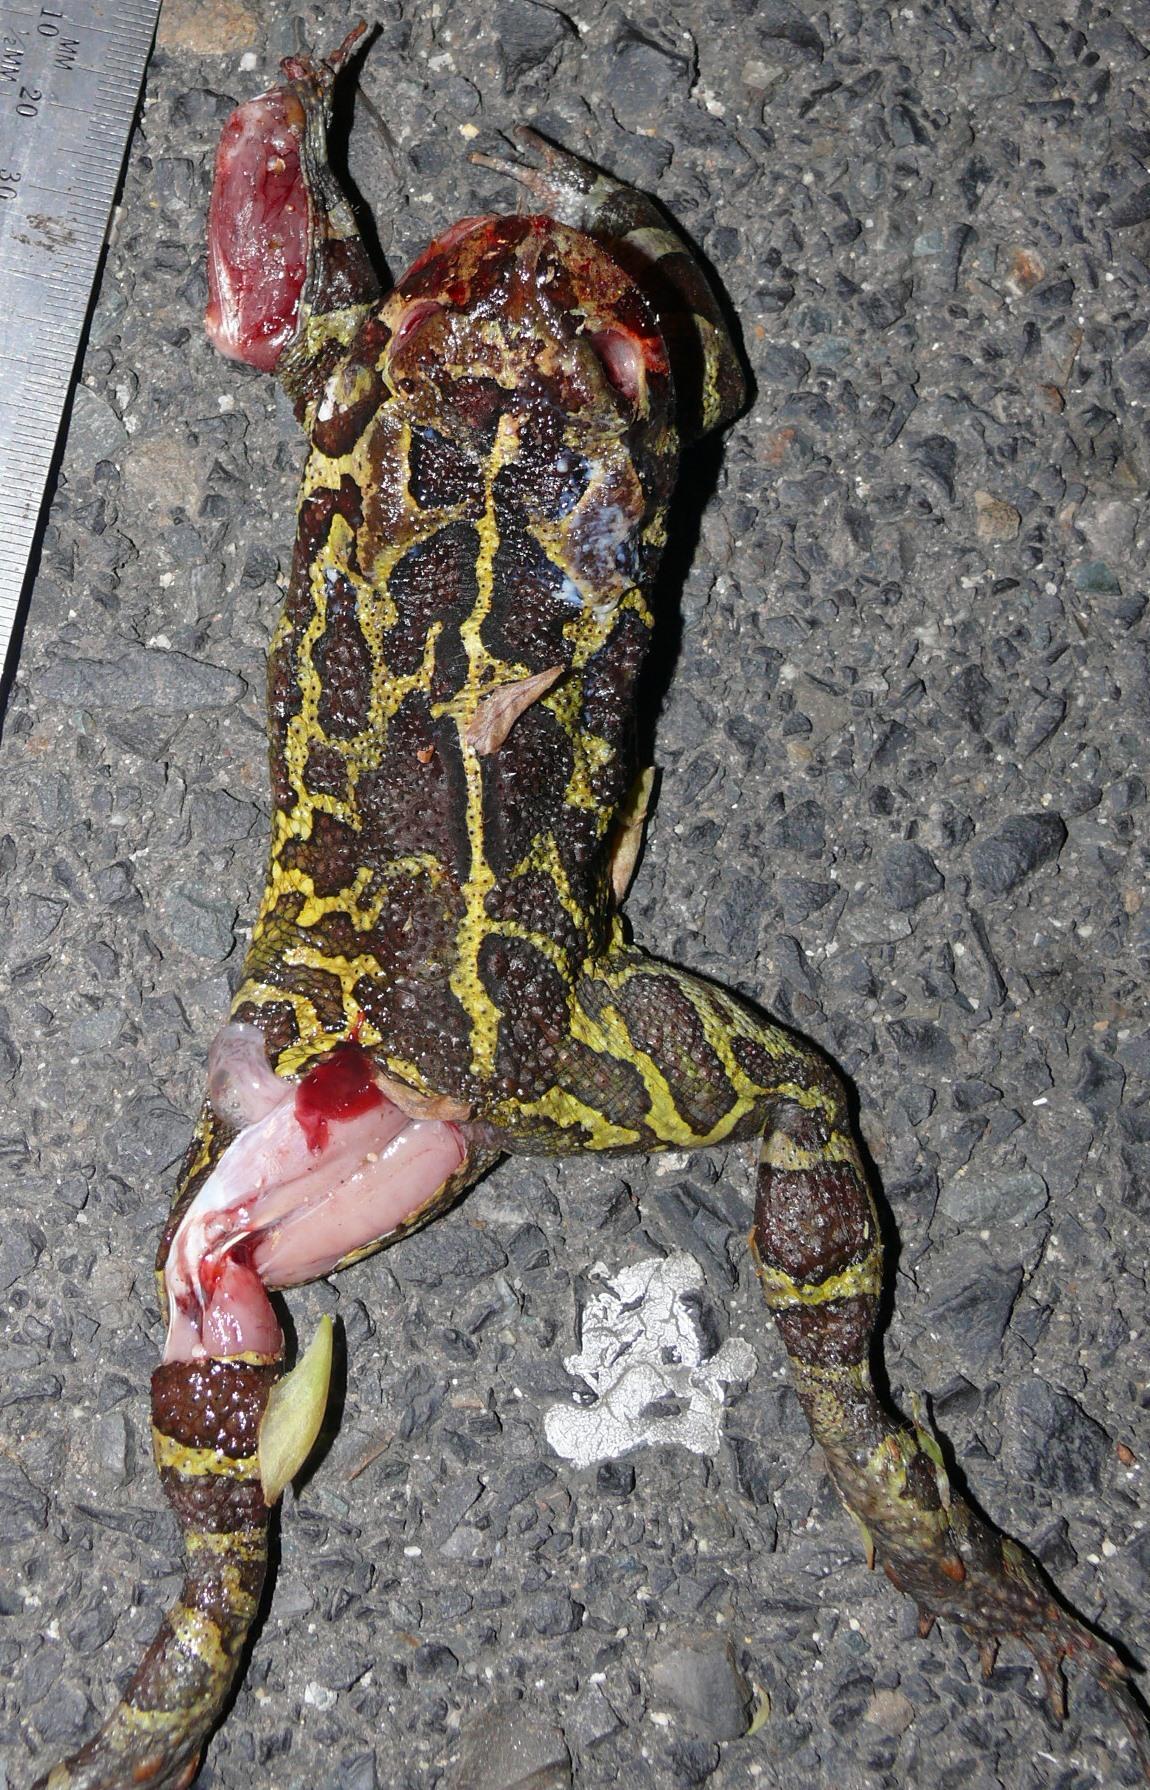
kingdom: Animalia
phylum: Chordata
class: Amphibia
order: Anura
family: Bufonidae
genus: Sclerophrys
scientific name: Sclerophrys pantherina
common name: Panther toad
